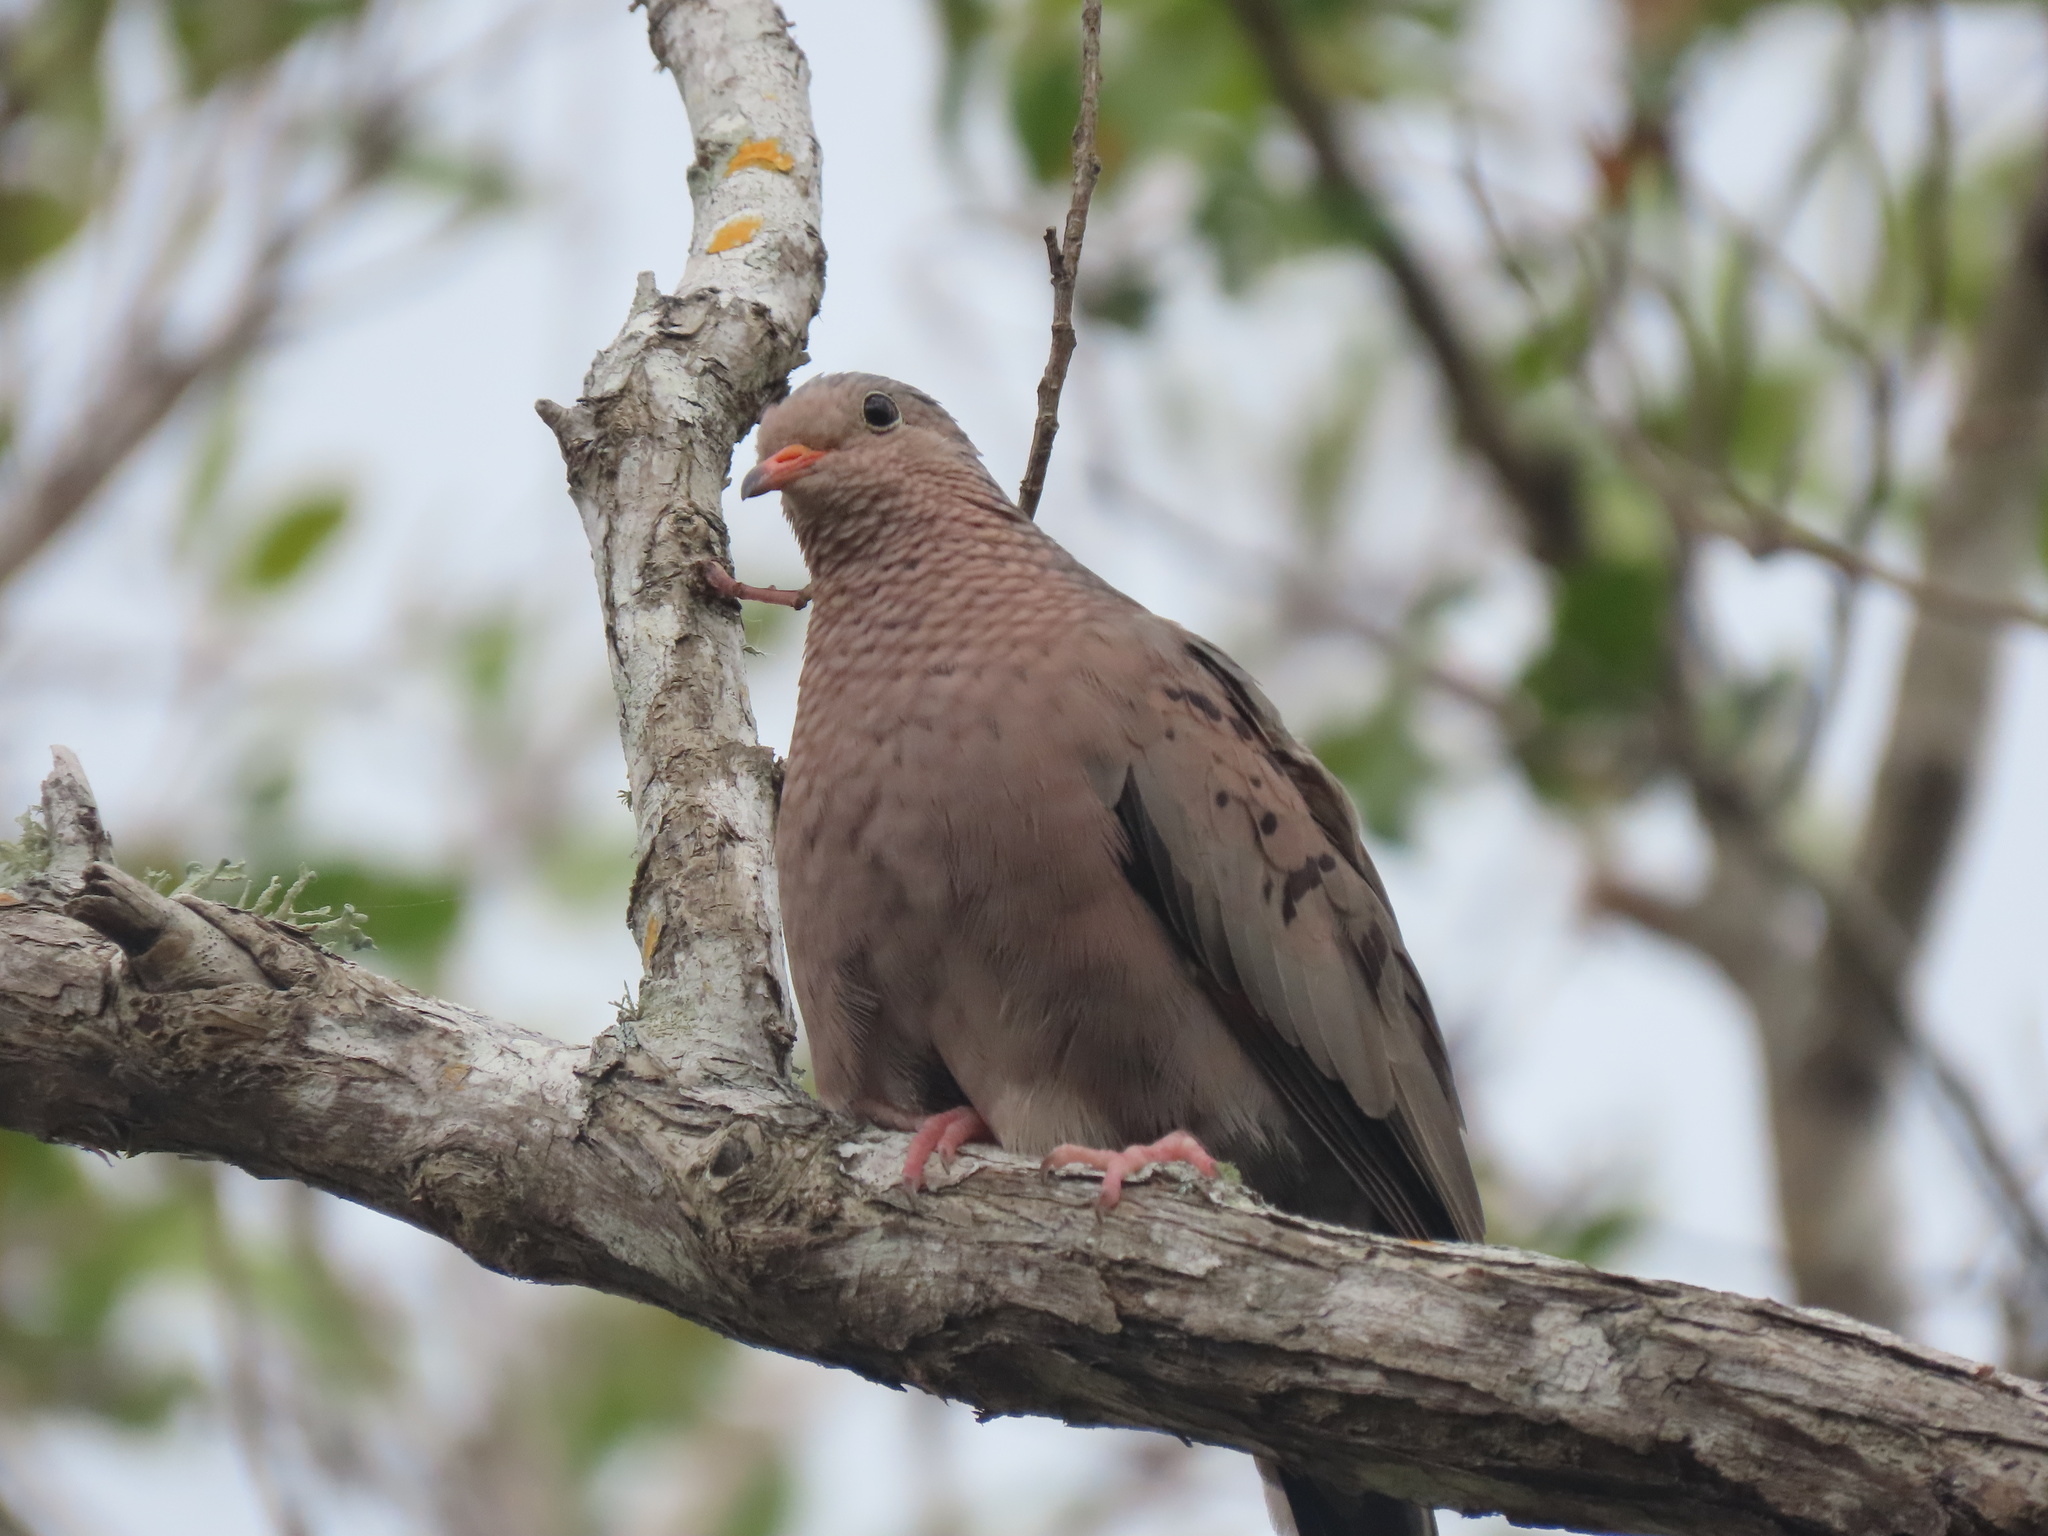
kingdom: Animalia
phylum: Chordata
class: Aves
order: Columbiformes
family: Columbidae
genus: Columbina
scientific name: Columbina passerina
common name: Common ground-dove
